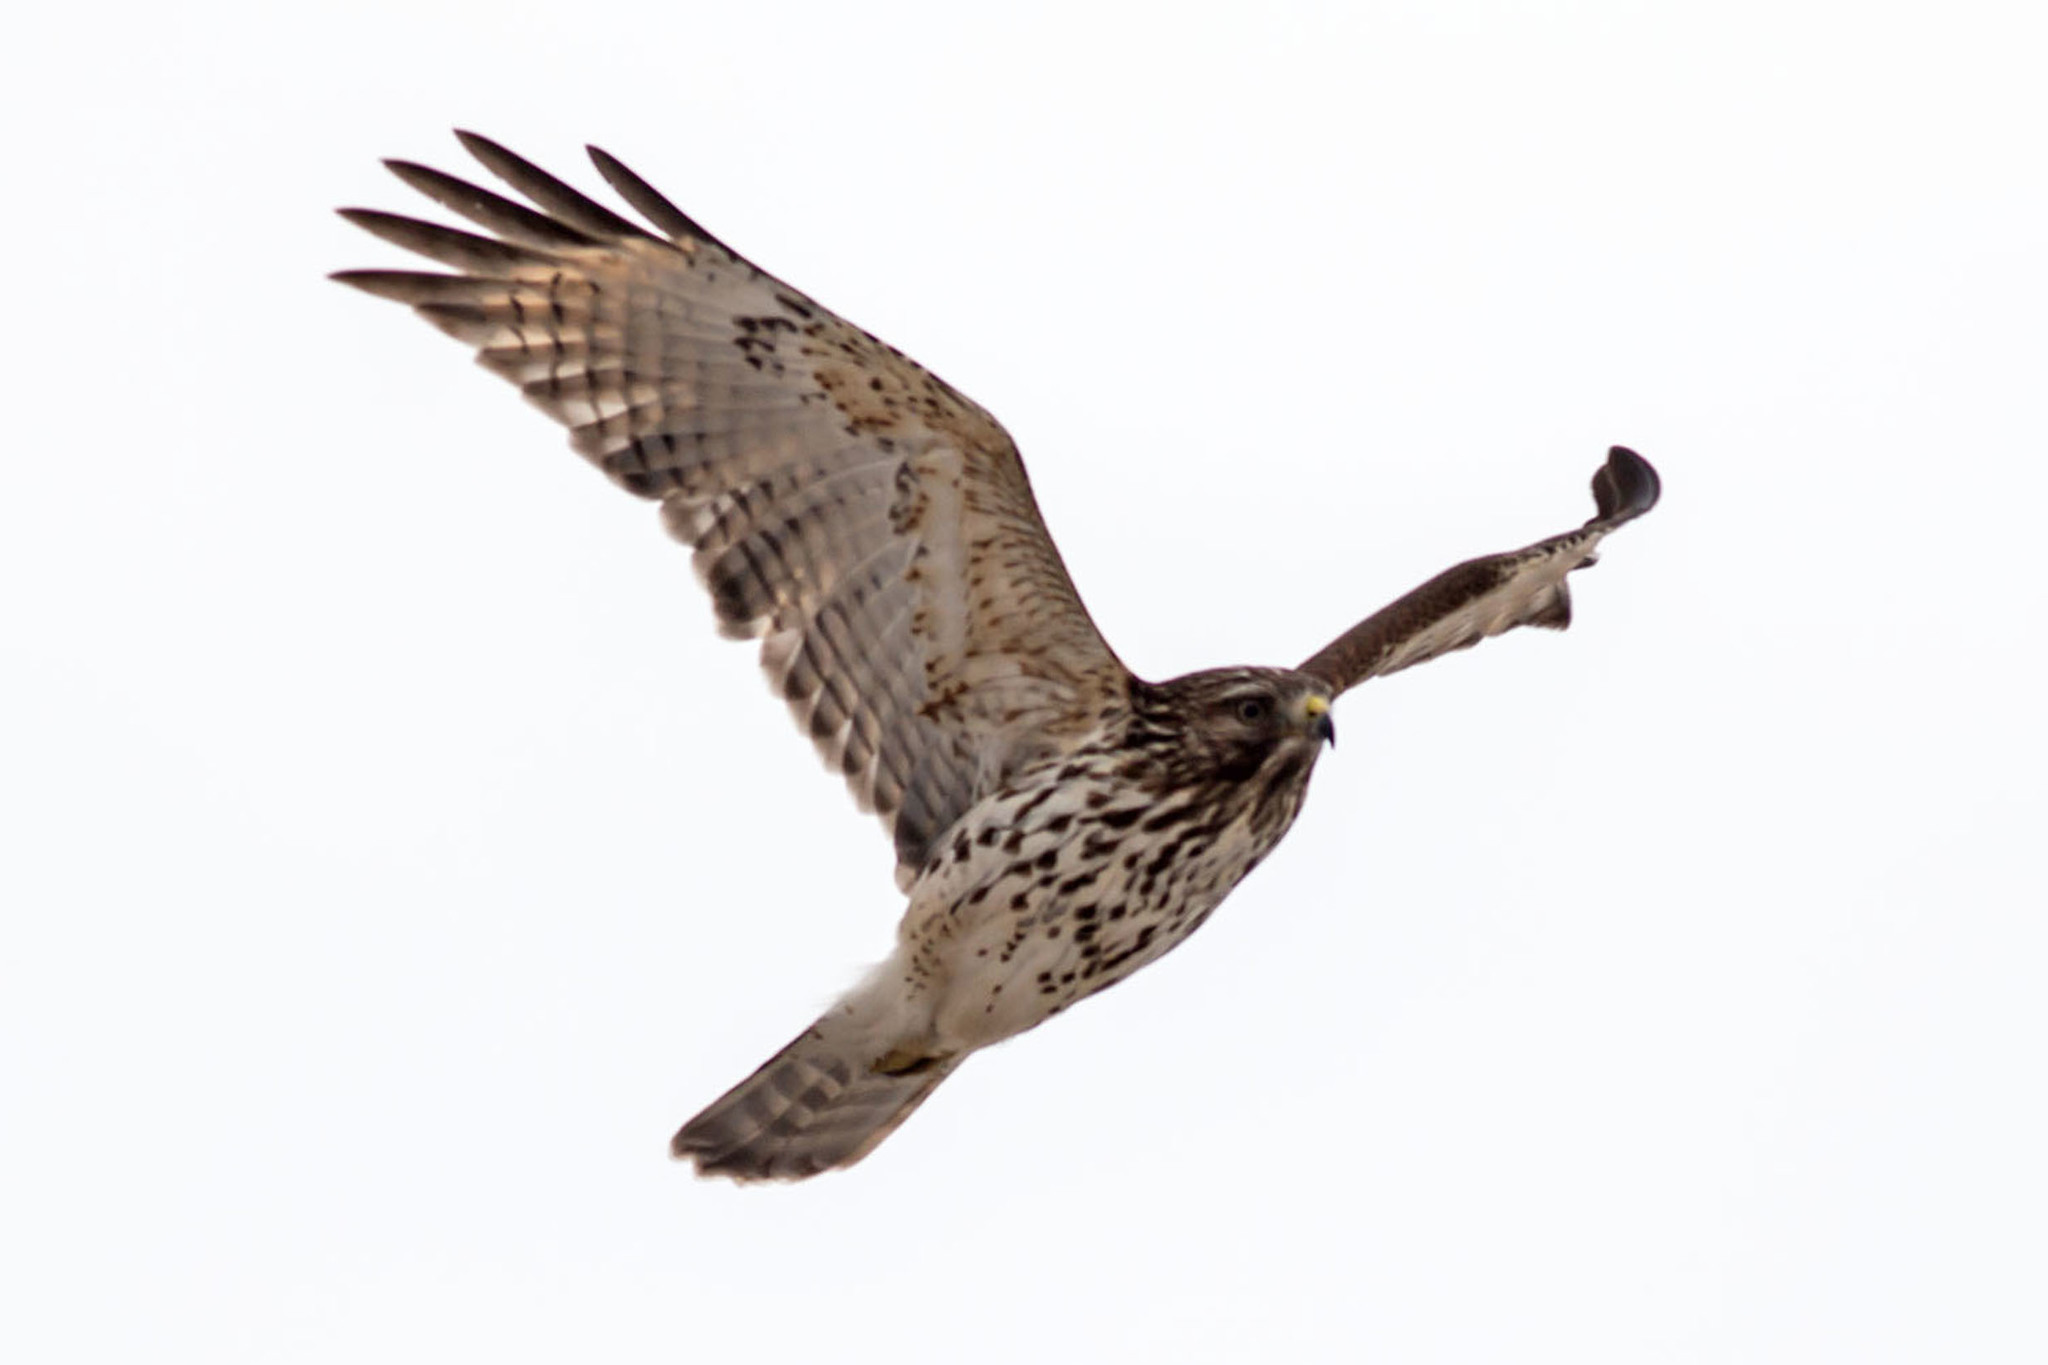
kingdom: Animalia
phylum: Chordata
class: Aves
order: Accipitriformes
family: Accipitridae
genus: Buteo
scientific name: Buteo lineatus
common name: Red-shouldered hawk
